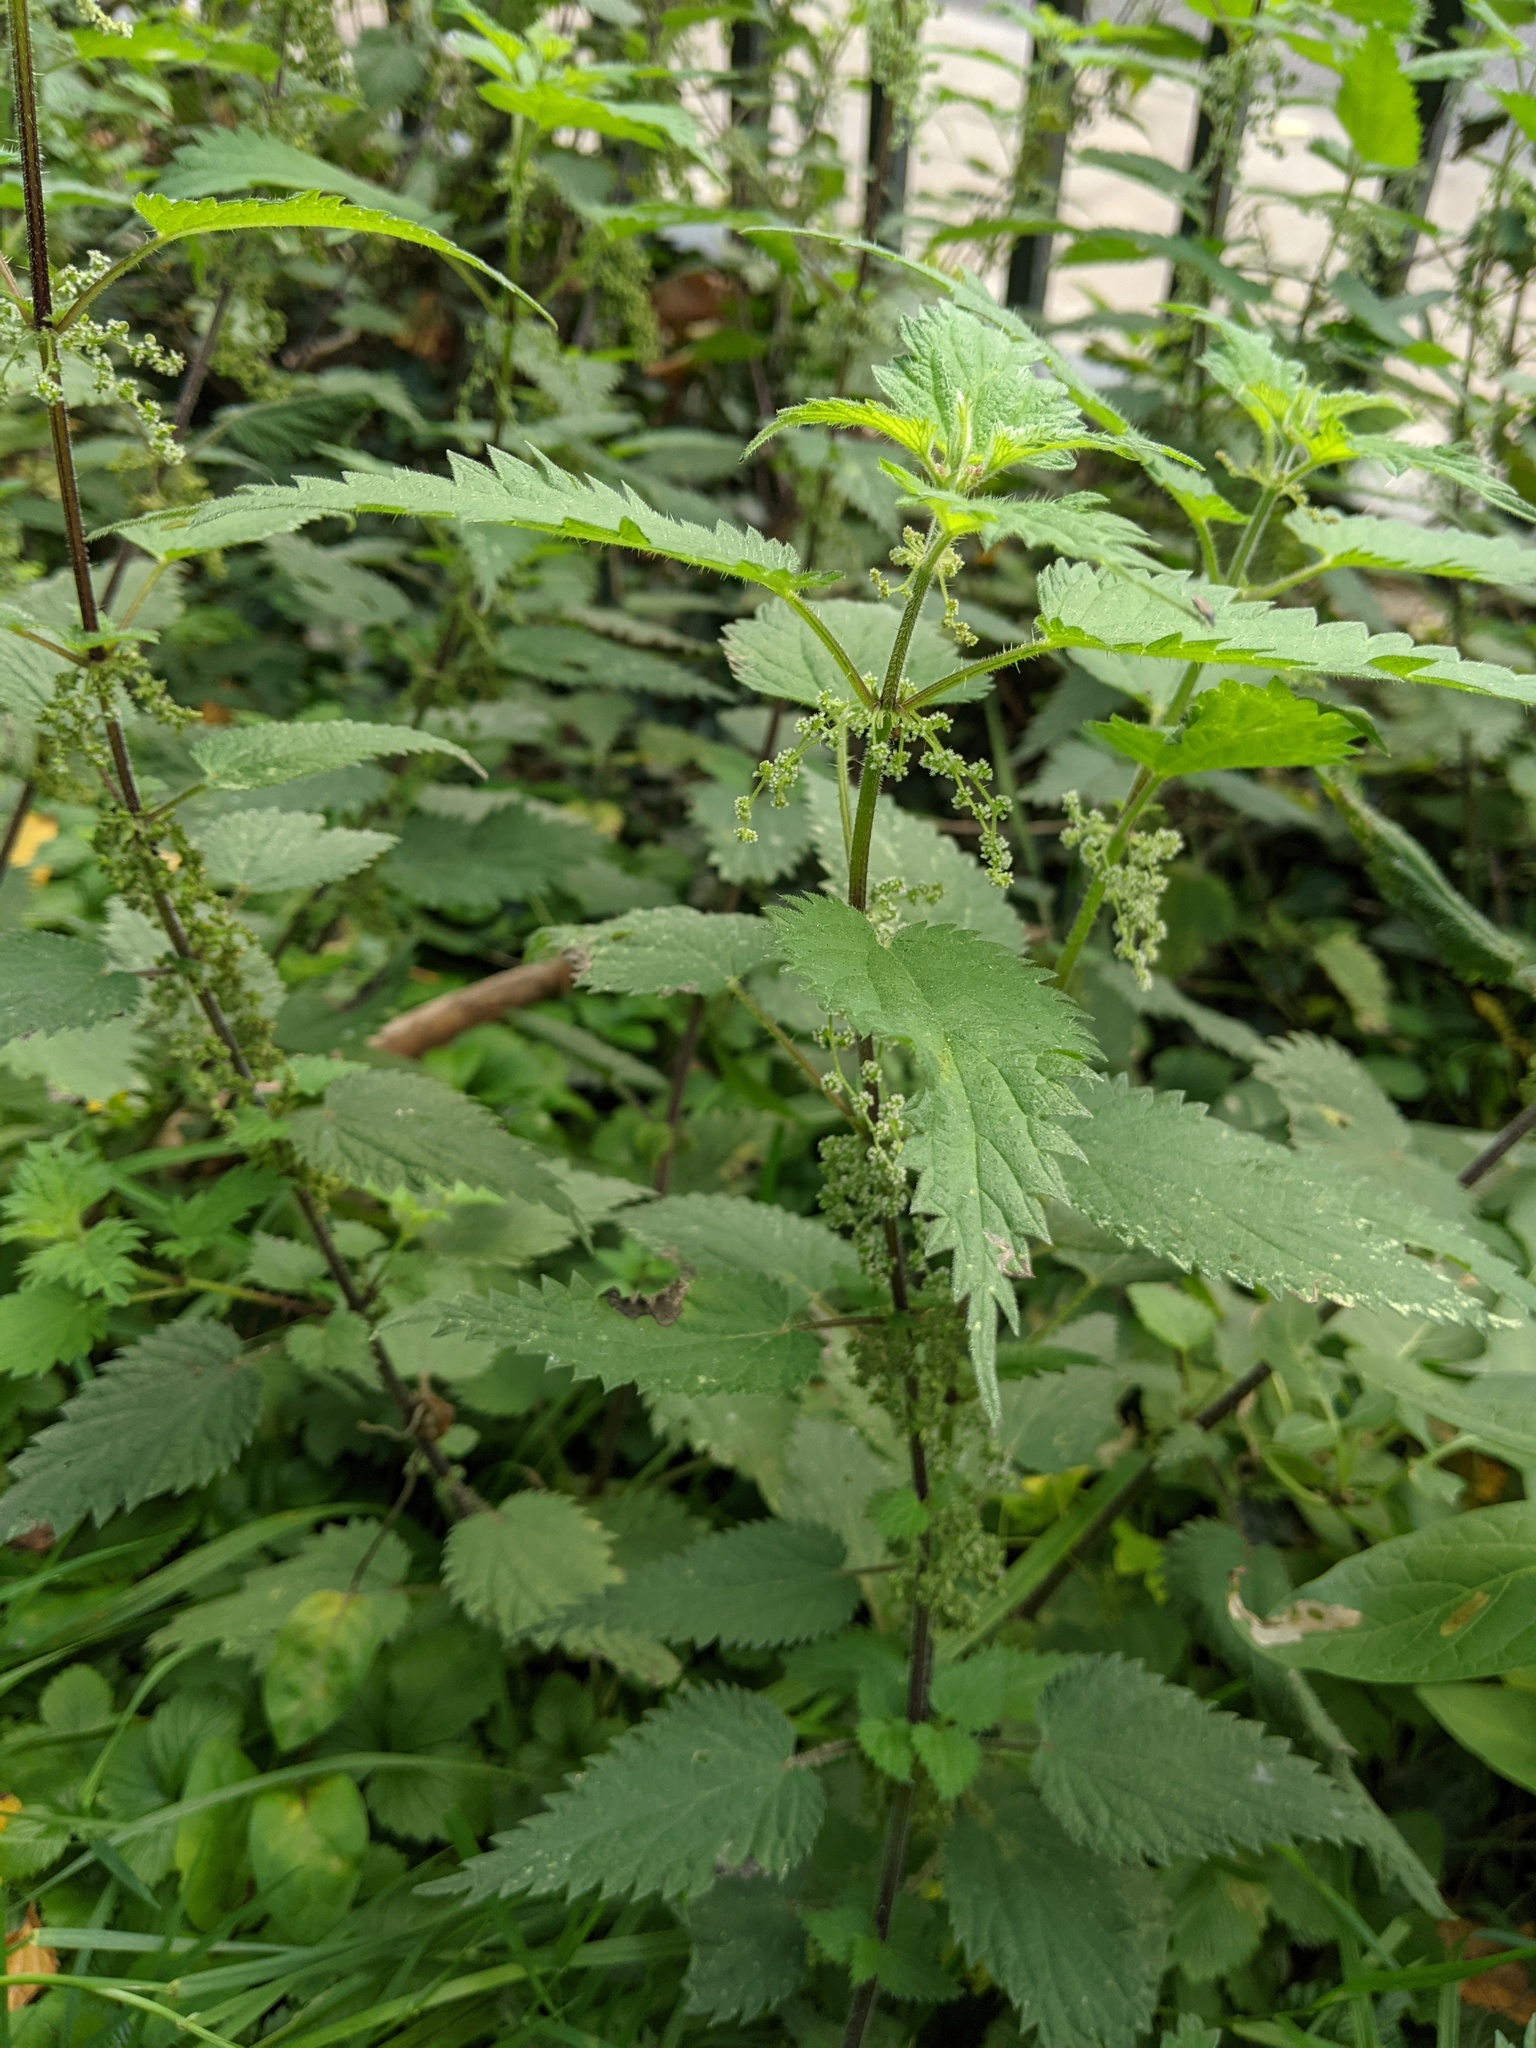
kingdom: Plantae
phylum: Tracheophyta
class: Magnoliopsida
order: Rosales
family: Urticaceae
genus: Urtica
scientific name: Urtica dioica
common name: Common nettle
